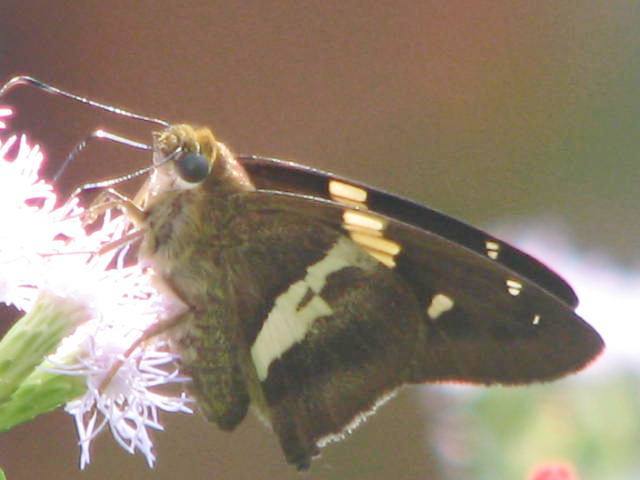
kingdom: Animalia
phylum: Arthropoda
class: Insecta
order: Lepidoptera
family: Hesperiidae
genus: Aguna
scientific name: Aguna asander
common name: Gold-spotted aguna
